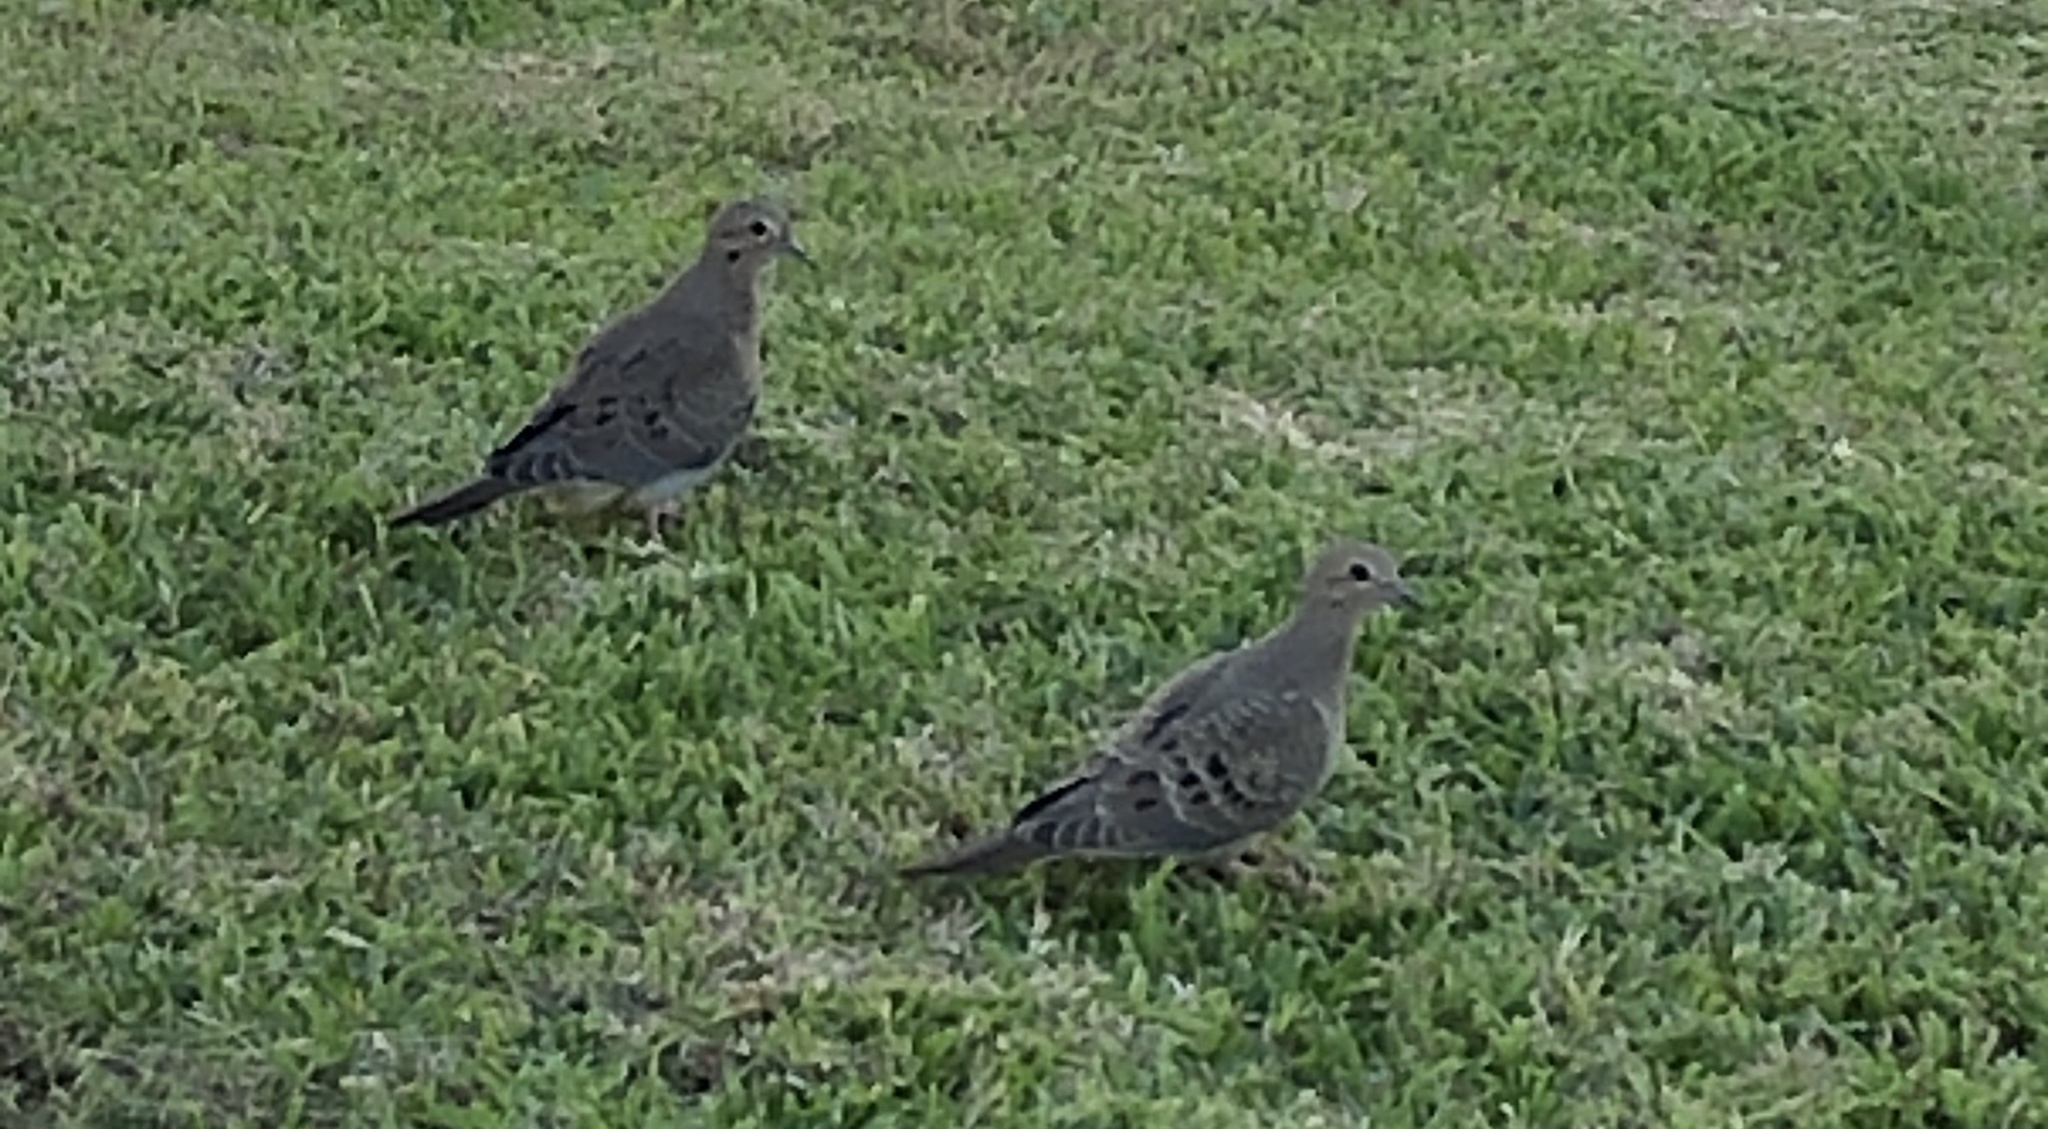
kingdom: Animalia
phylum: Chordata
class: Aves
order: Columbiformes
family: Columbidae
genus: Zenaida
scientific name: Zenaida macroura
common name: Mourning dove
